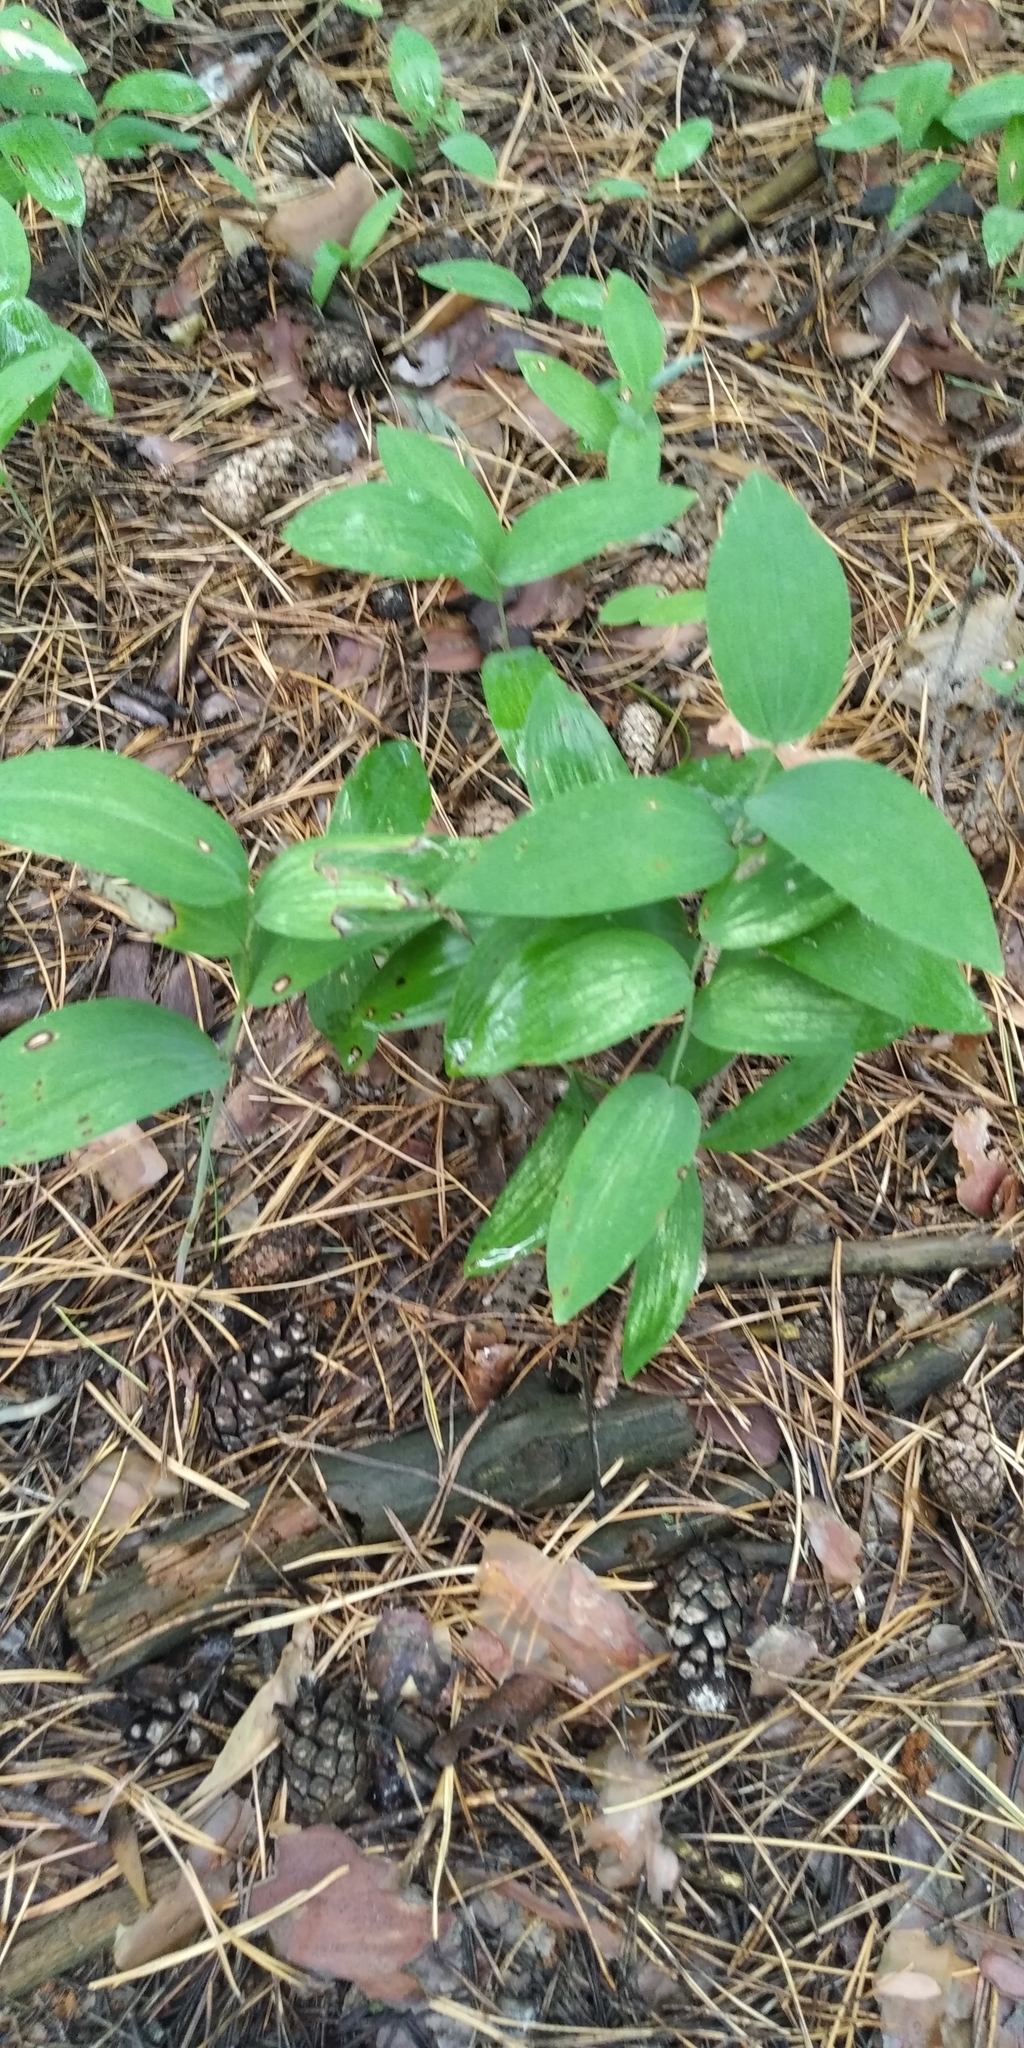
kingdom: Plantae
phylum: Tracheophyta
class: Liliopsida
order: Asparagales
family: Asparagaceae
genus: Polygonatum
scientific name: Polygonatum odoratum
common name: Angular solomon's-seal
